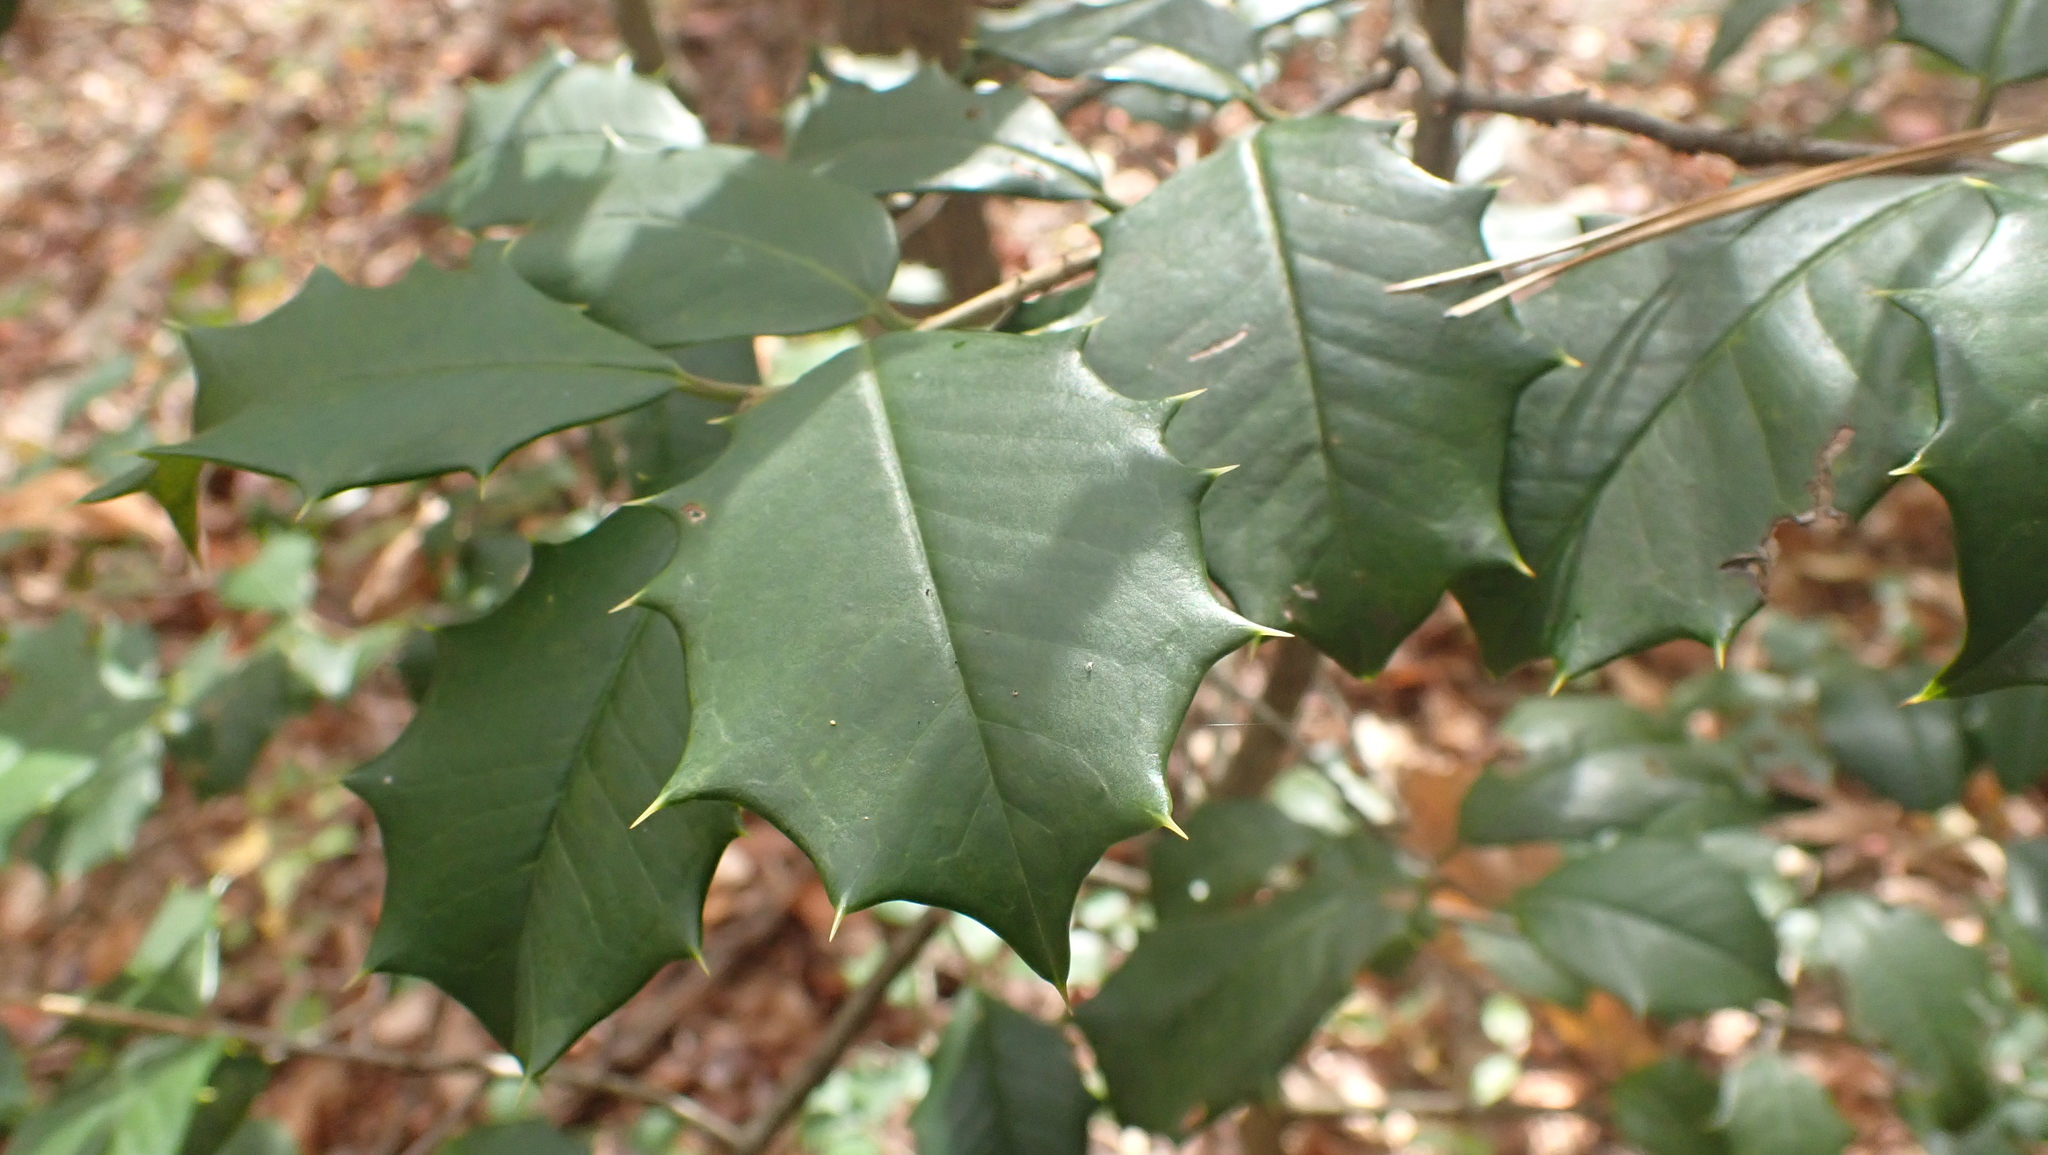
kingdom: Plantae
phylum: Tracheophyta
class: Magnoliopsida
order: Aquifoliales
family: Aquifoliaceae
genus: Ilex
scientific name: Ilex opaca
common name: American holly
